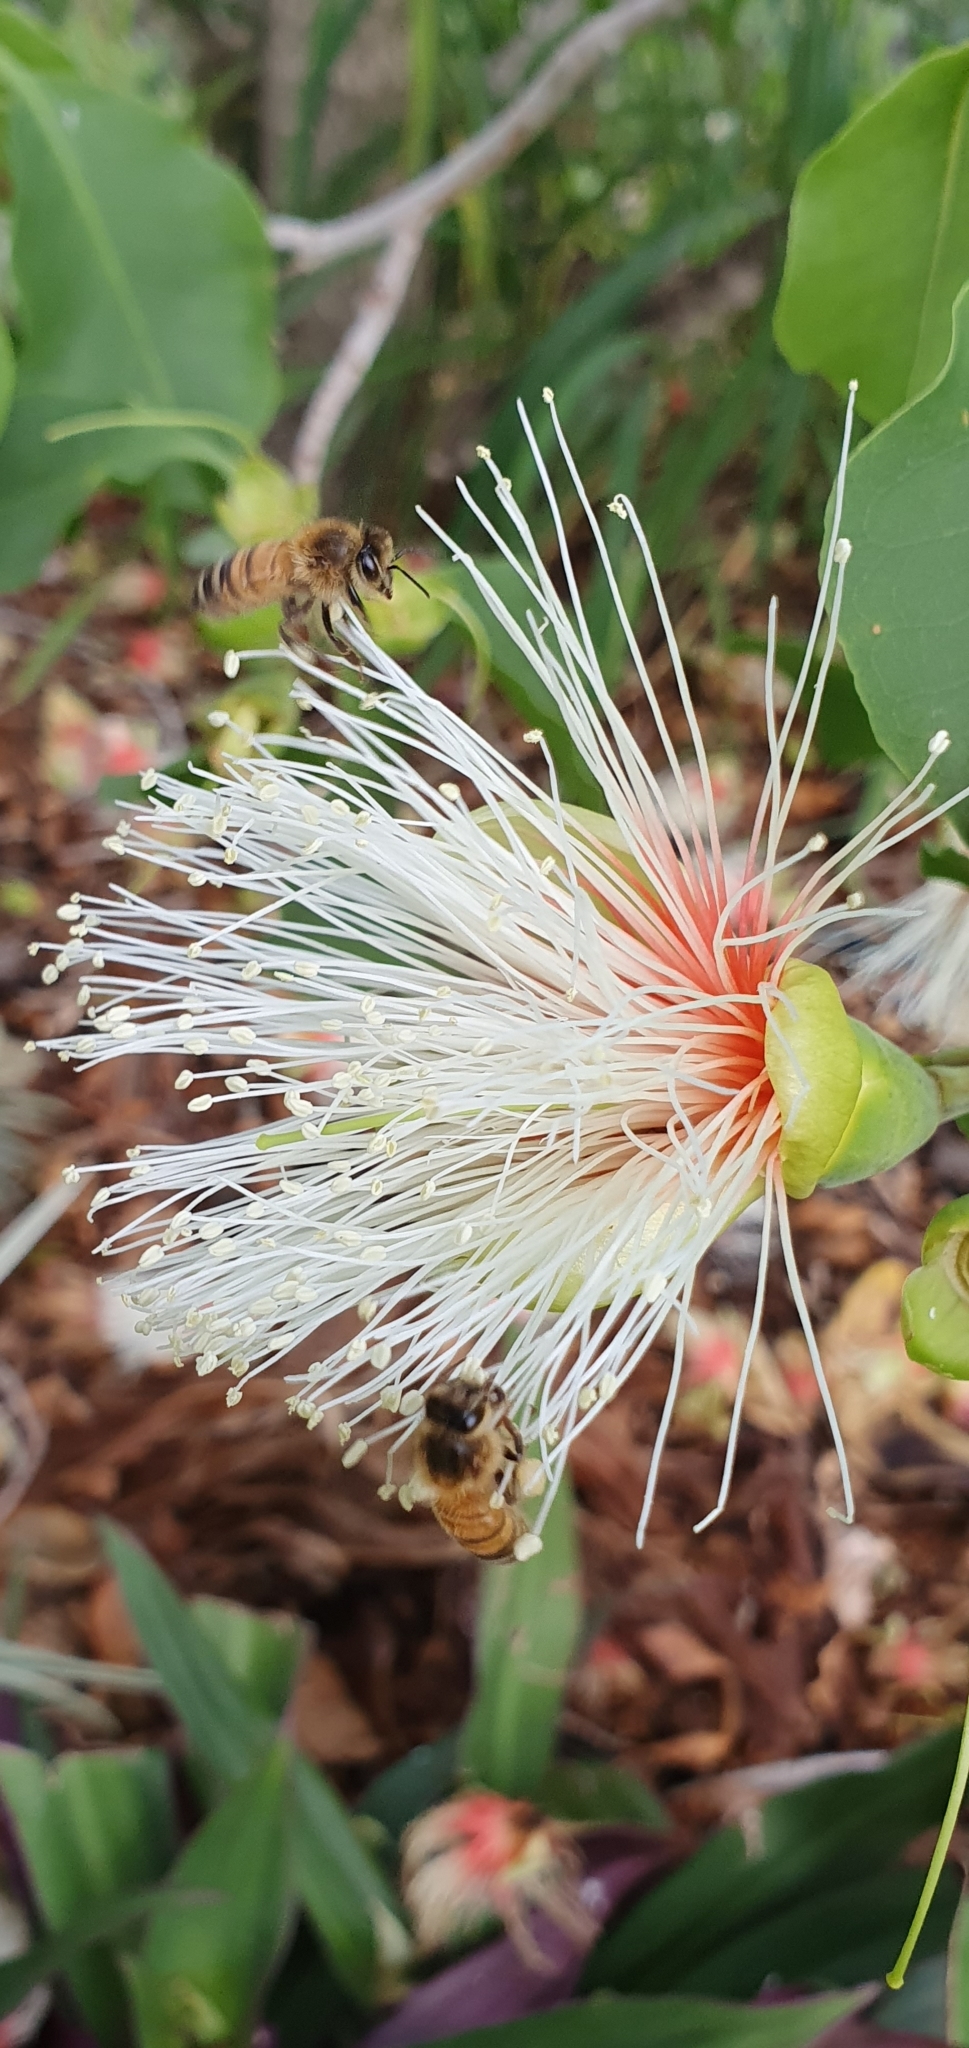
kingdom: Animalia
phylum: Arthropoda
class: Insecta
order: Hymenoptera
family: Apidae
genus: Apis
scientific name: Apis mellifera
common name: Honey bee
